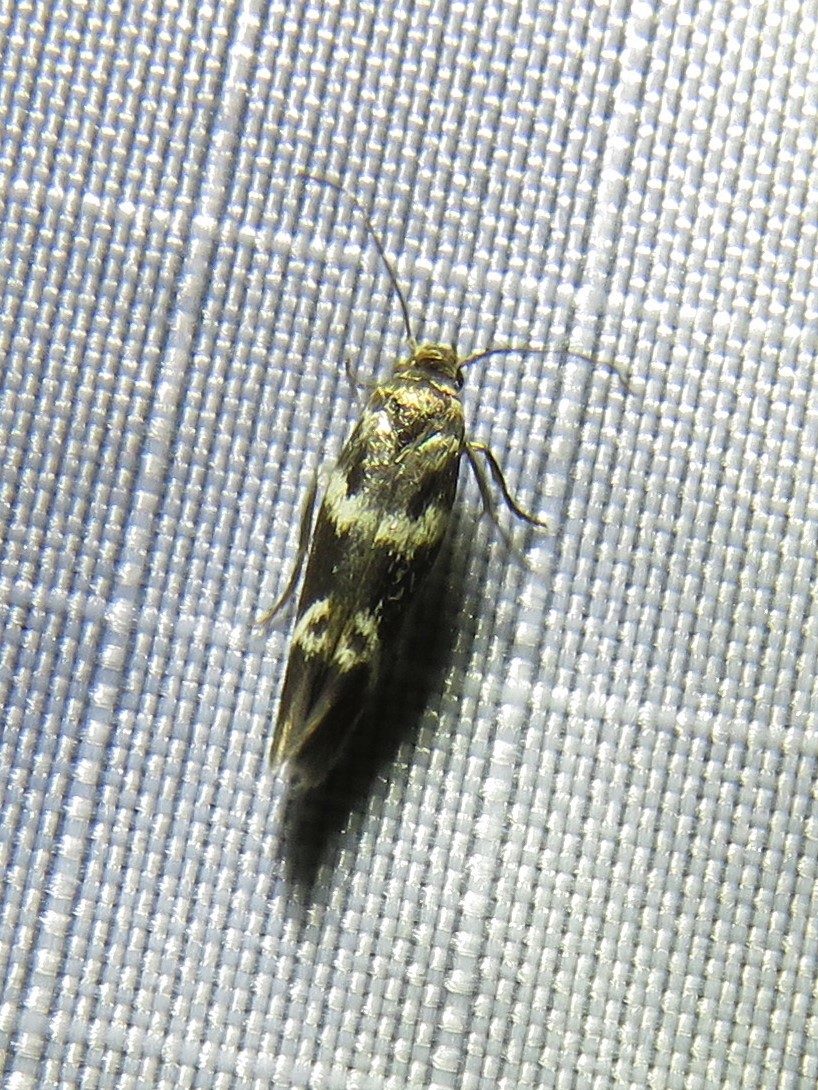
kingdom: Animalia
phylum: Arthropoda
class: Insecta
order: Lepidoptera
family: Scythrididae
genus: Scythris
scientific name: Scythris trivinctella
